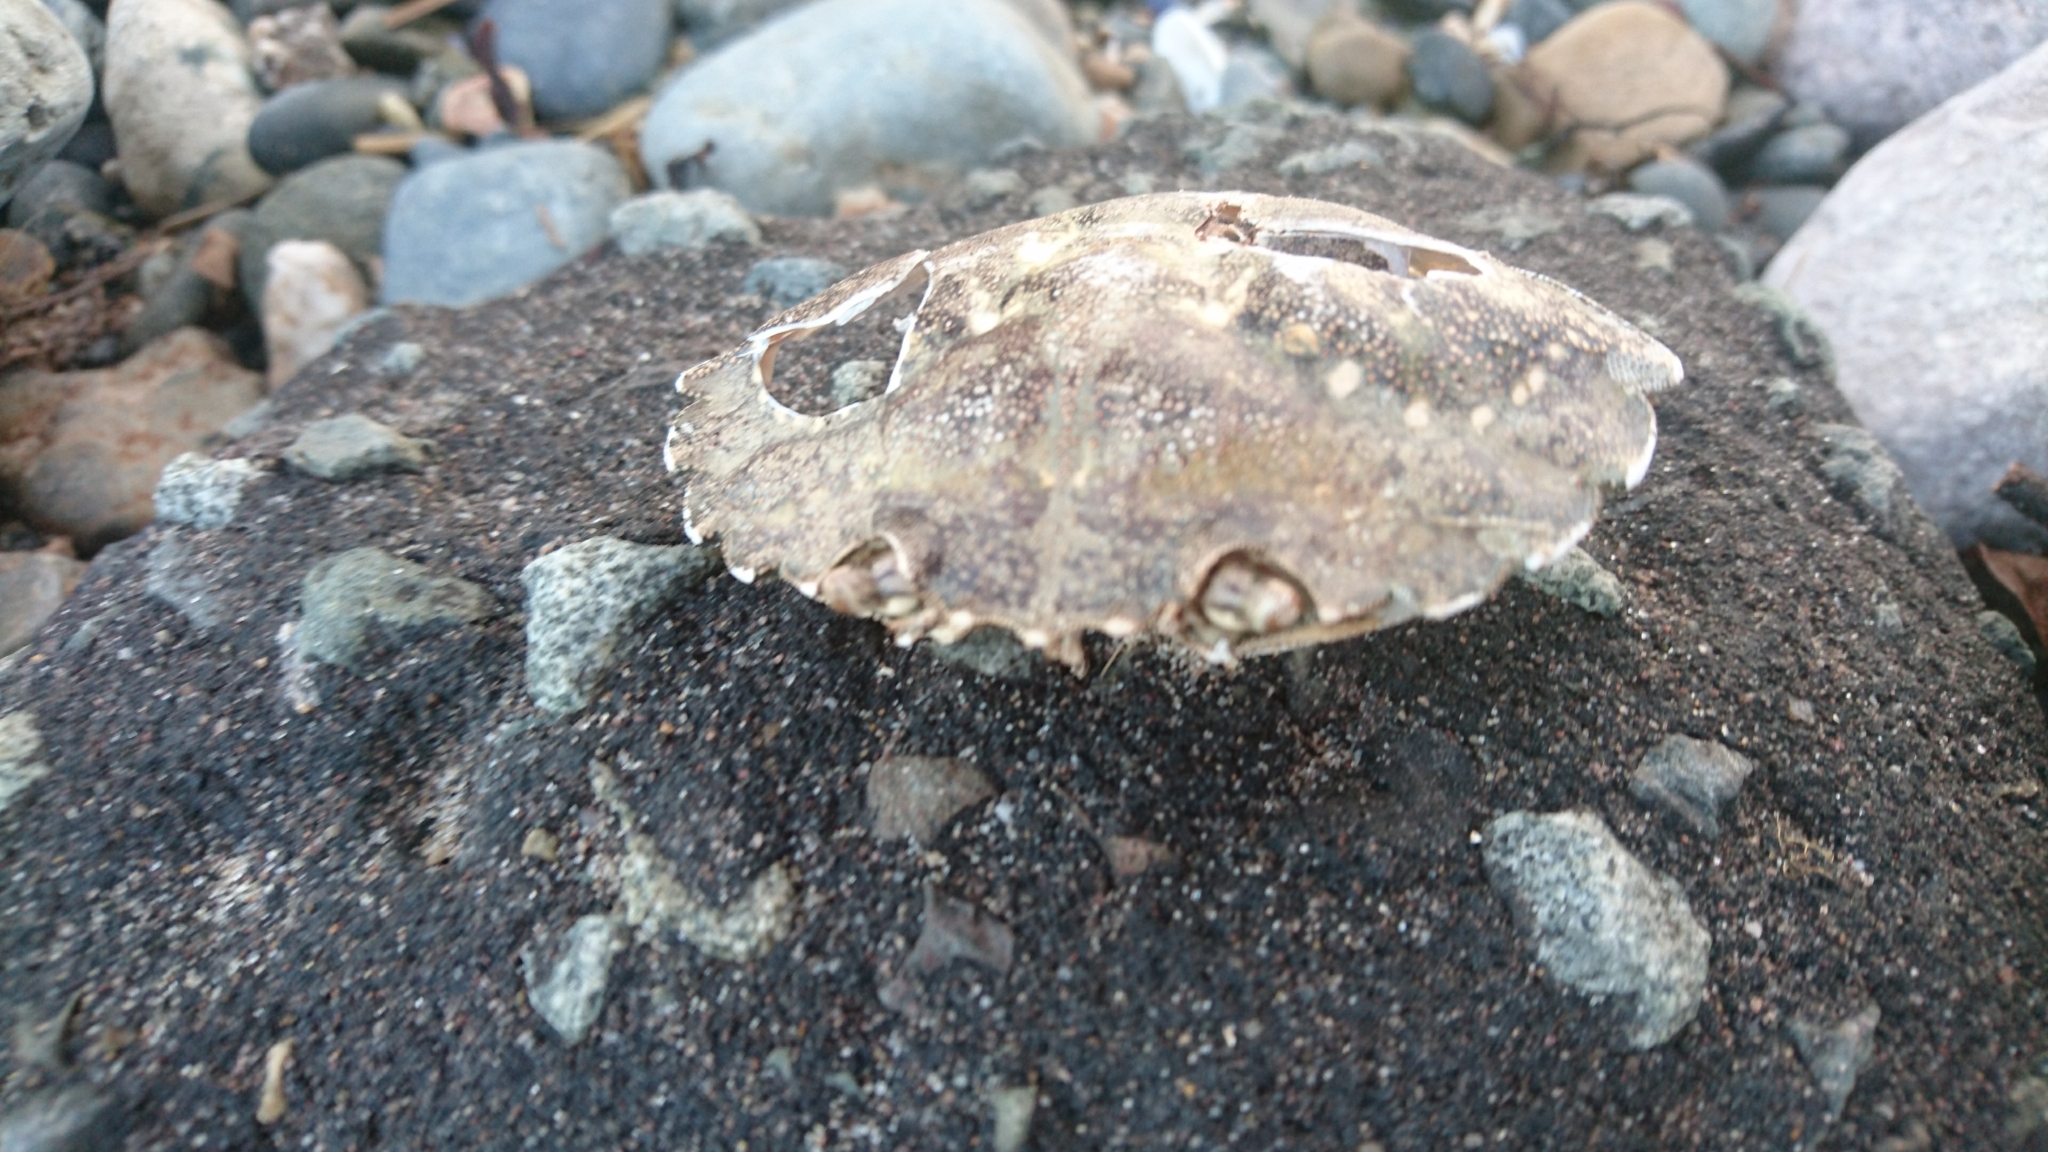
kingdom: Animalia
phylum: Arthropoda
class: Malacostraca
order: Decapoda
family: Carcinidae
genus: Carcinus
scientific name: Carcinus maenas
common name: European green crab
